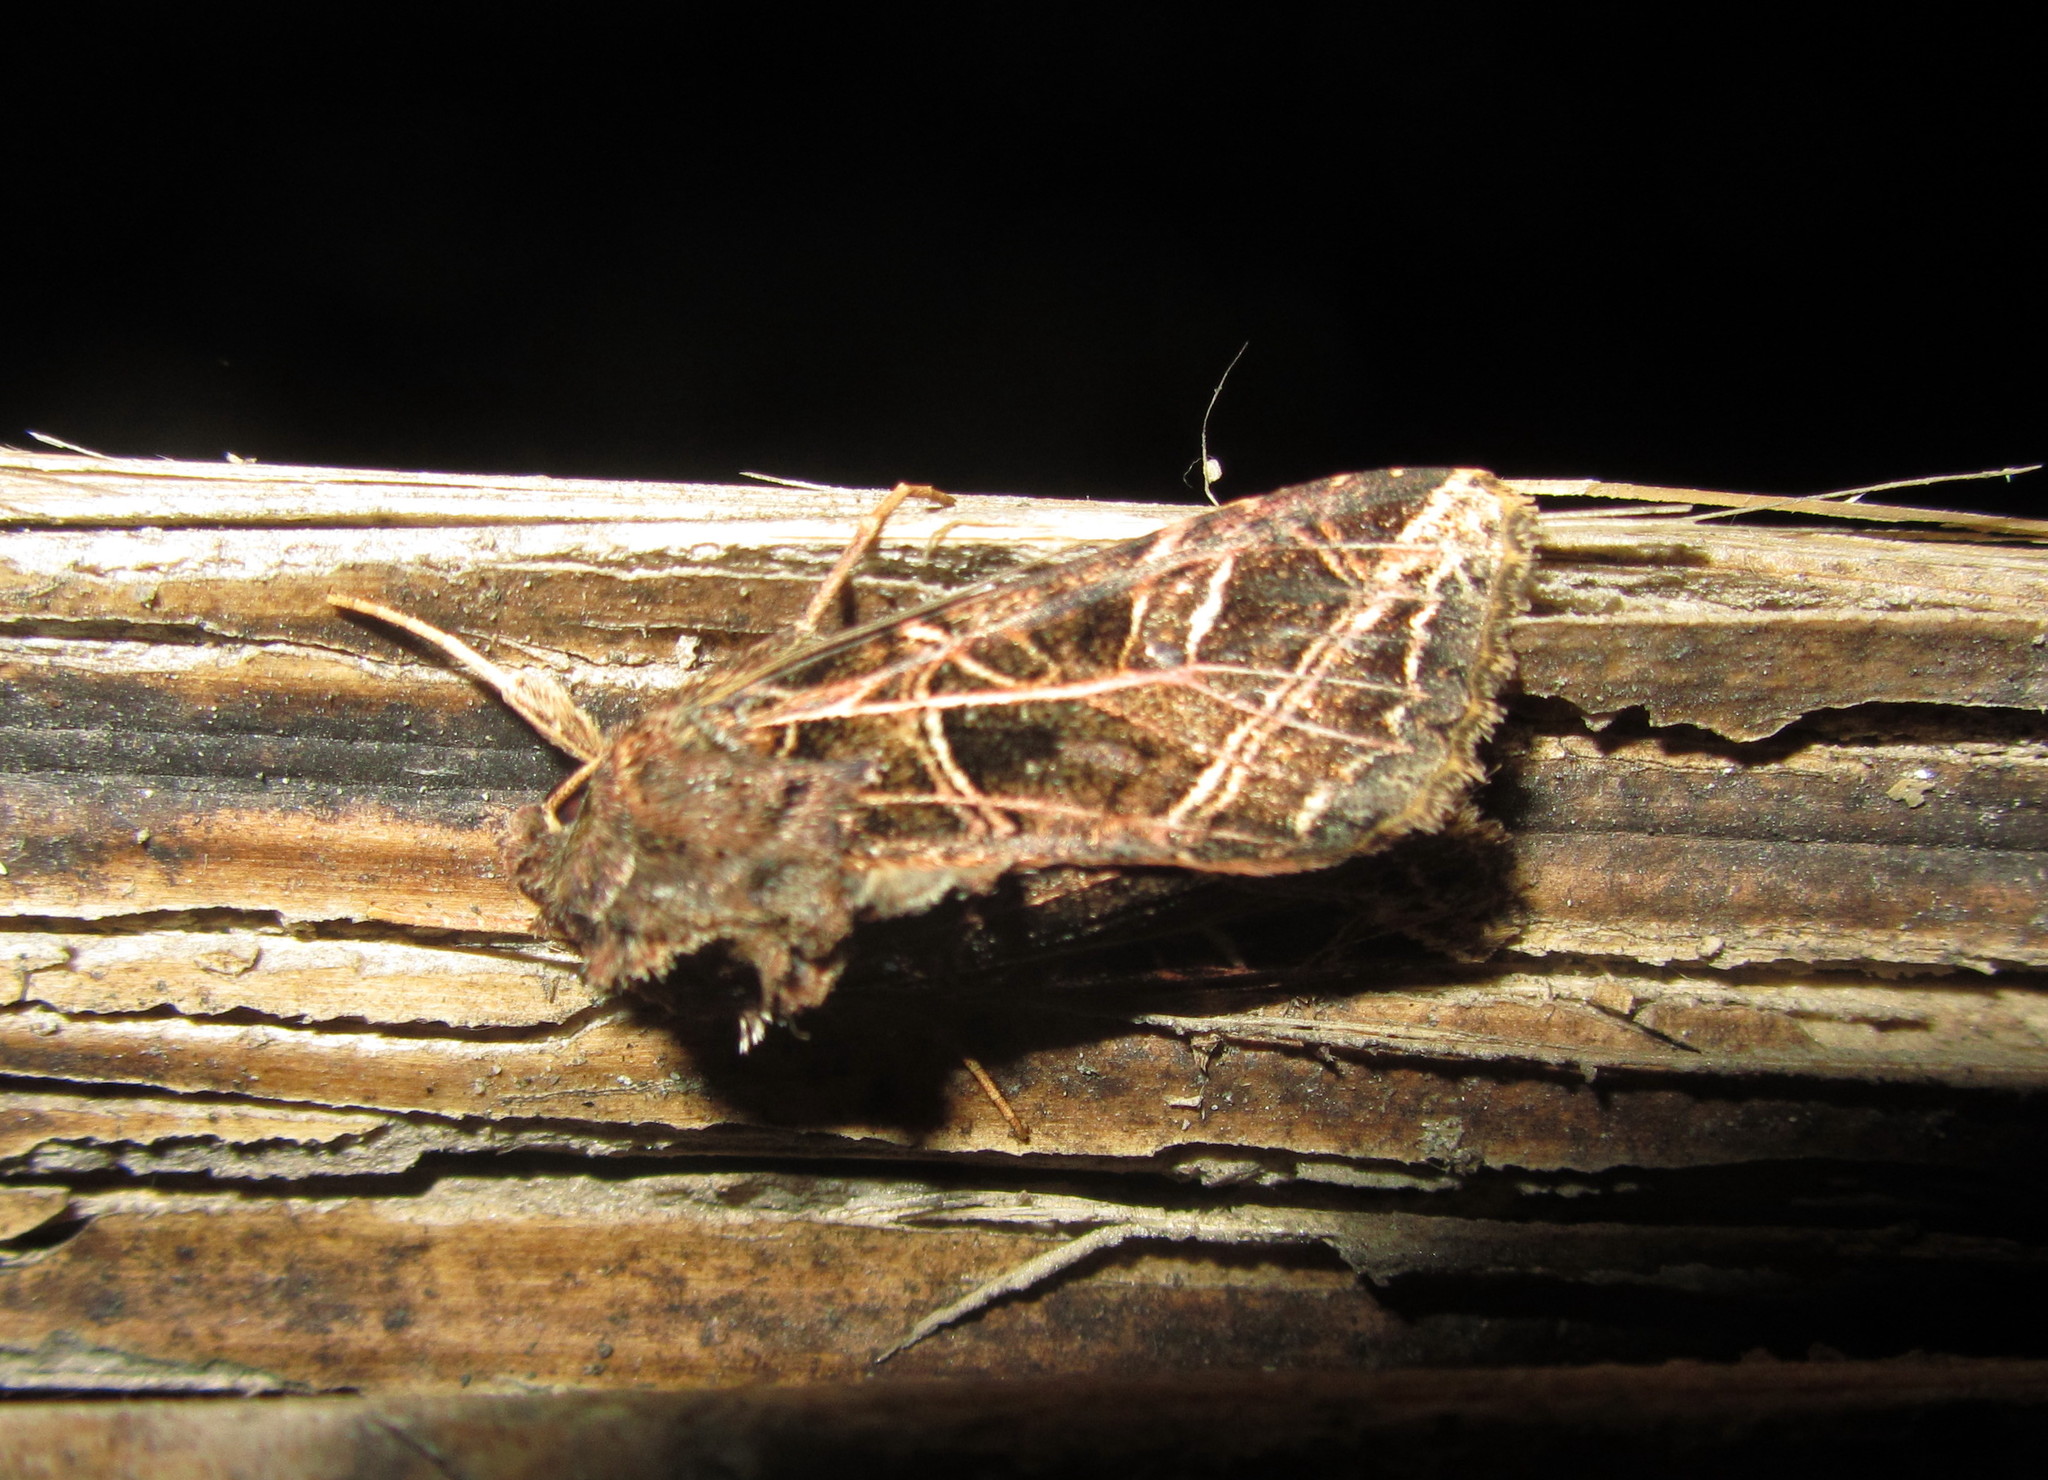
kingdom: Animalia
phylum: Arthropoda
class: Insecta
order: Lepidoptera
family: Noctuidae
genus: Dictyestra
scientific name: Dictyestra dissectus
